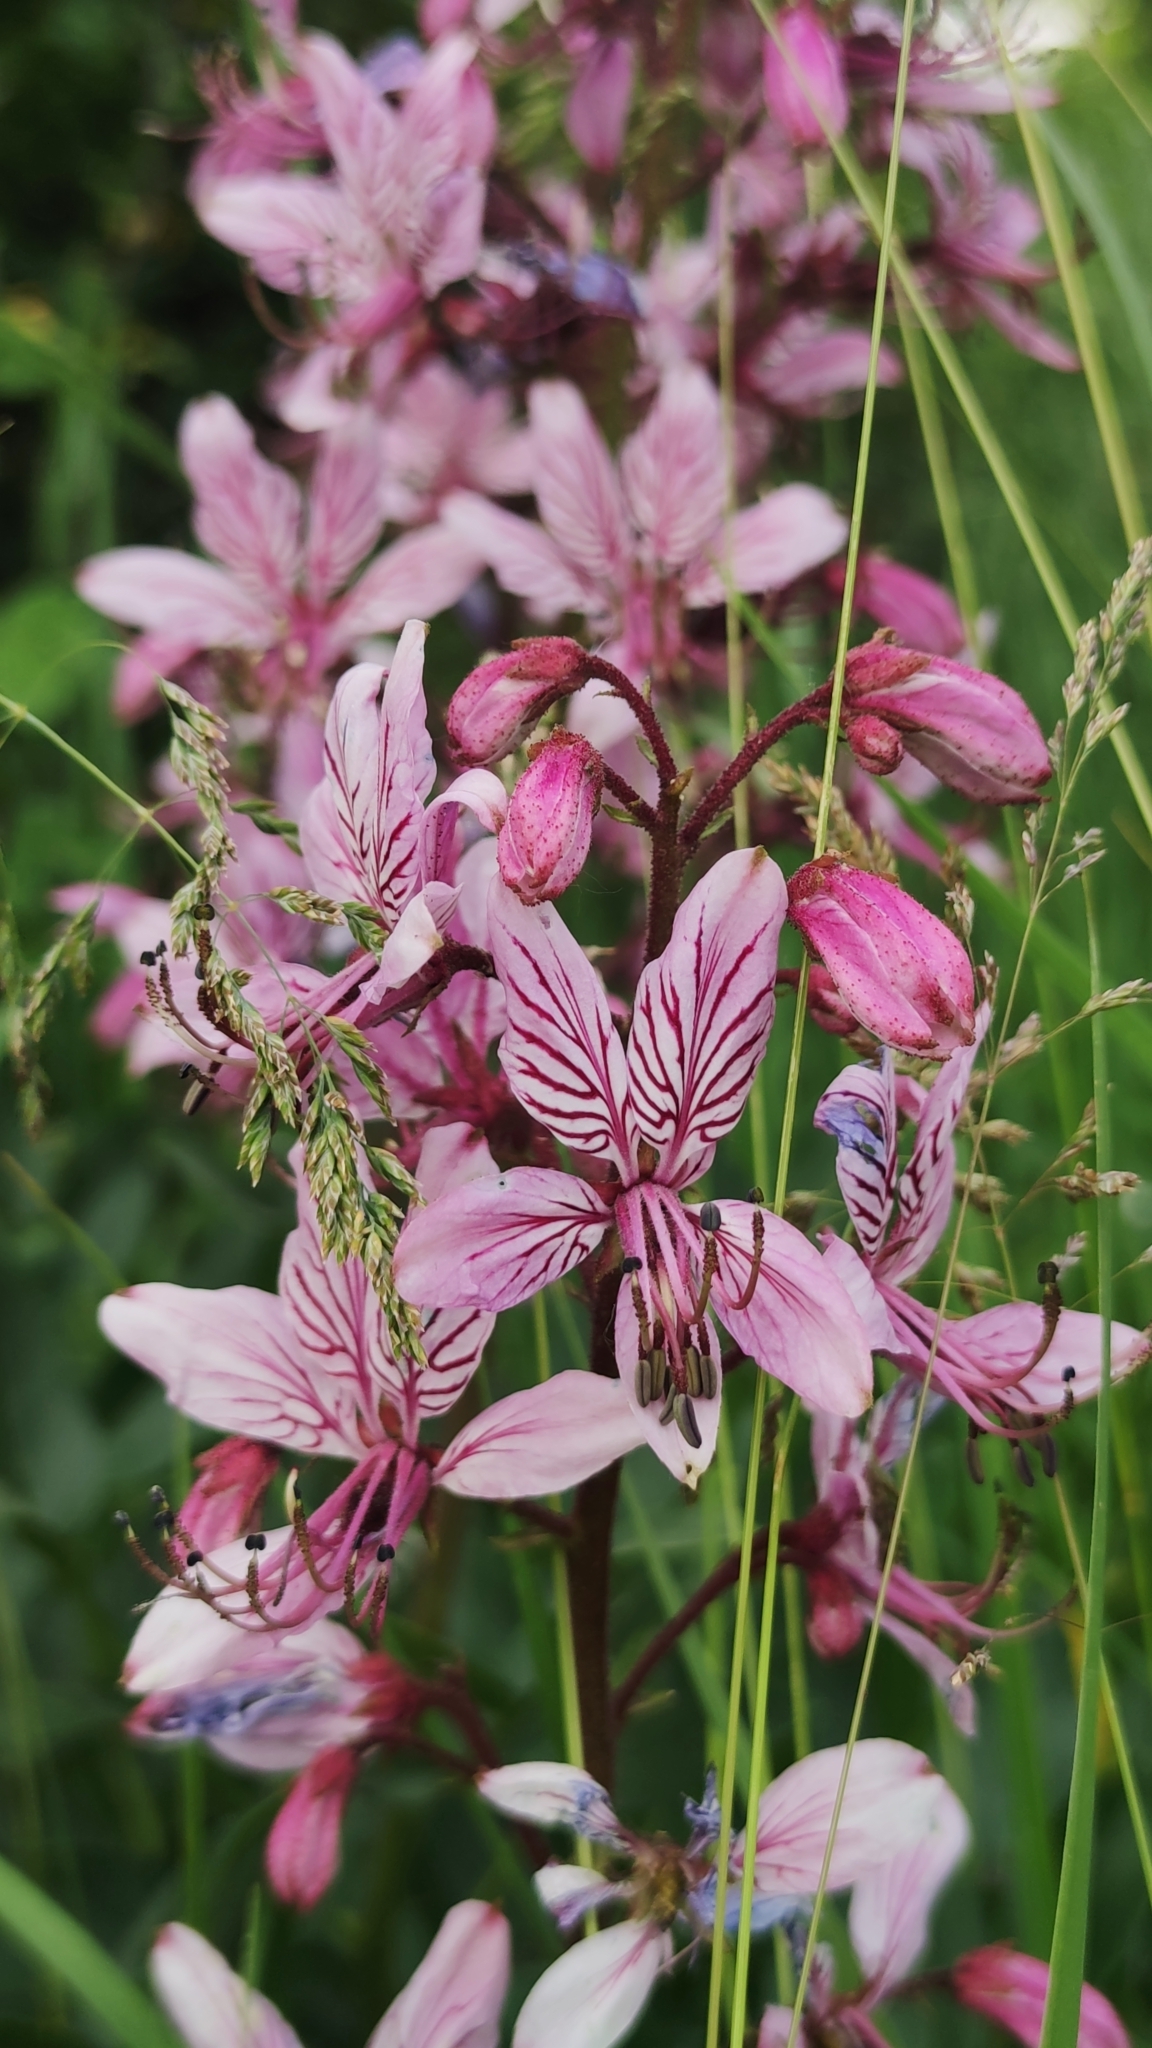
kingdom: Plantae
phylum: Tracheophyta
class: Magnoliopsida
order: Sapindales
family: Rutaceae
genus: Dictamnus
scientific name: Dictamnus albus
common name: Gasplant
